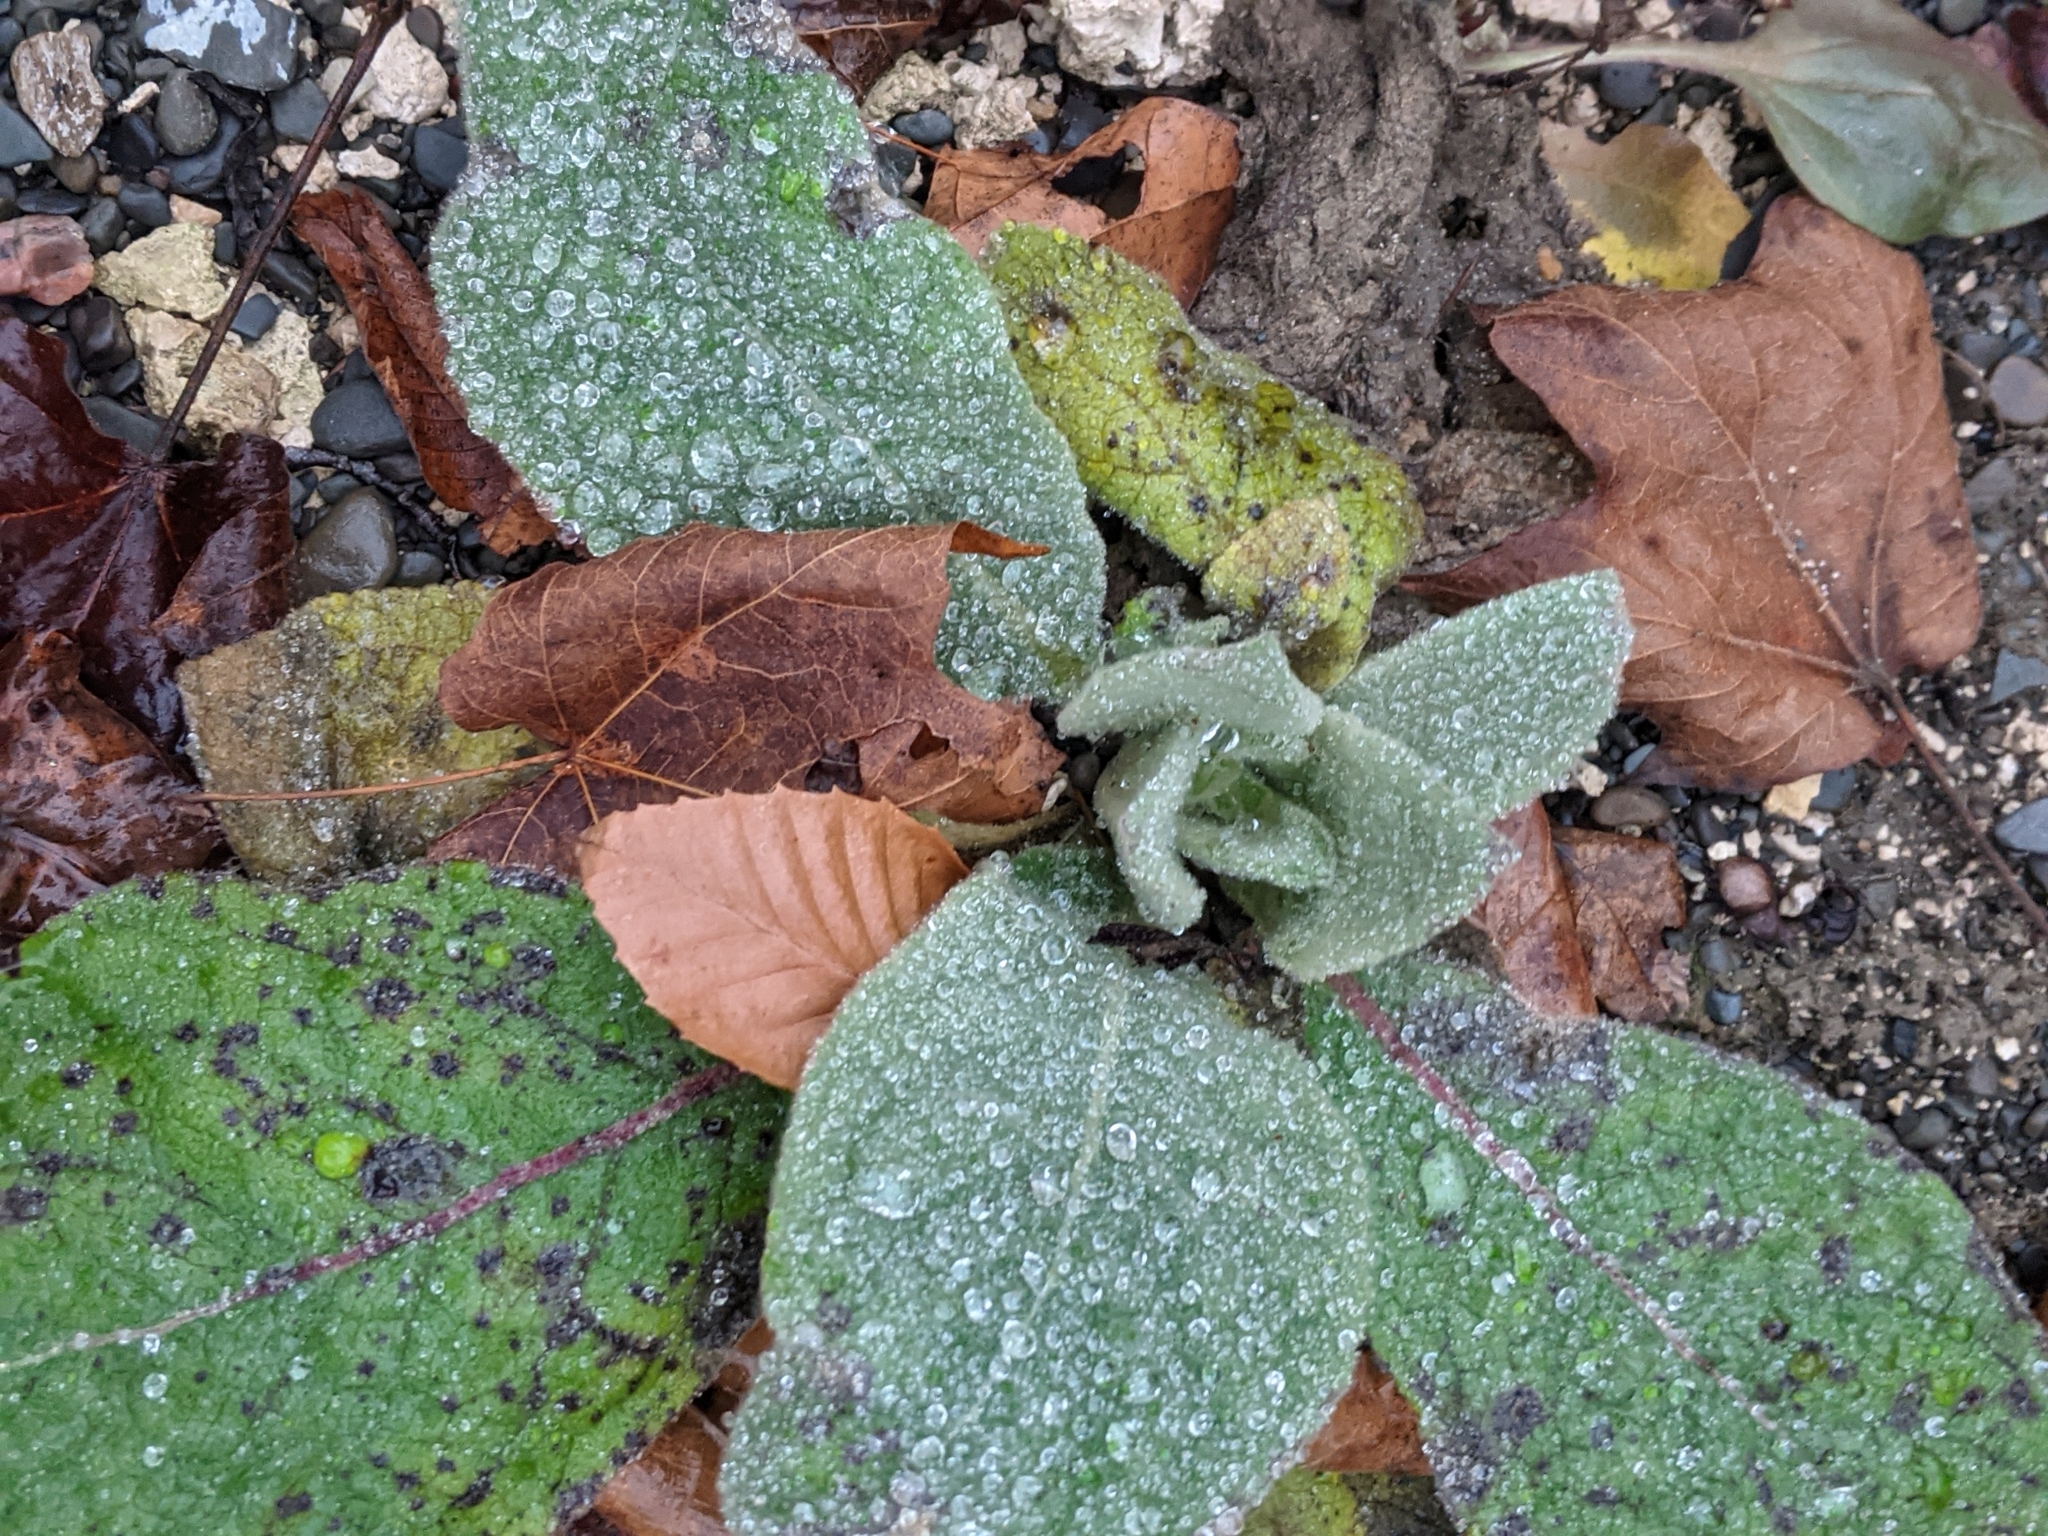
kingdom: Plantae
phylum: Tracheophyta
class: Magnoliopsida
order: Lamiales
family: Scrophulariaceae
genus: Verbascum
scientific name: Verbascum thapsus
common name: Common mullein
